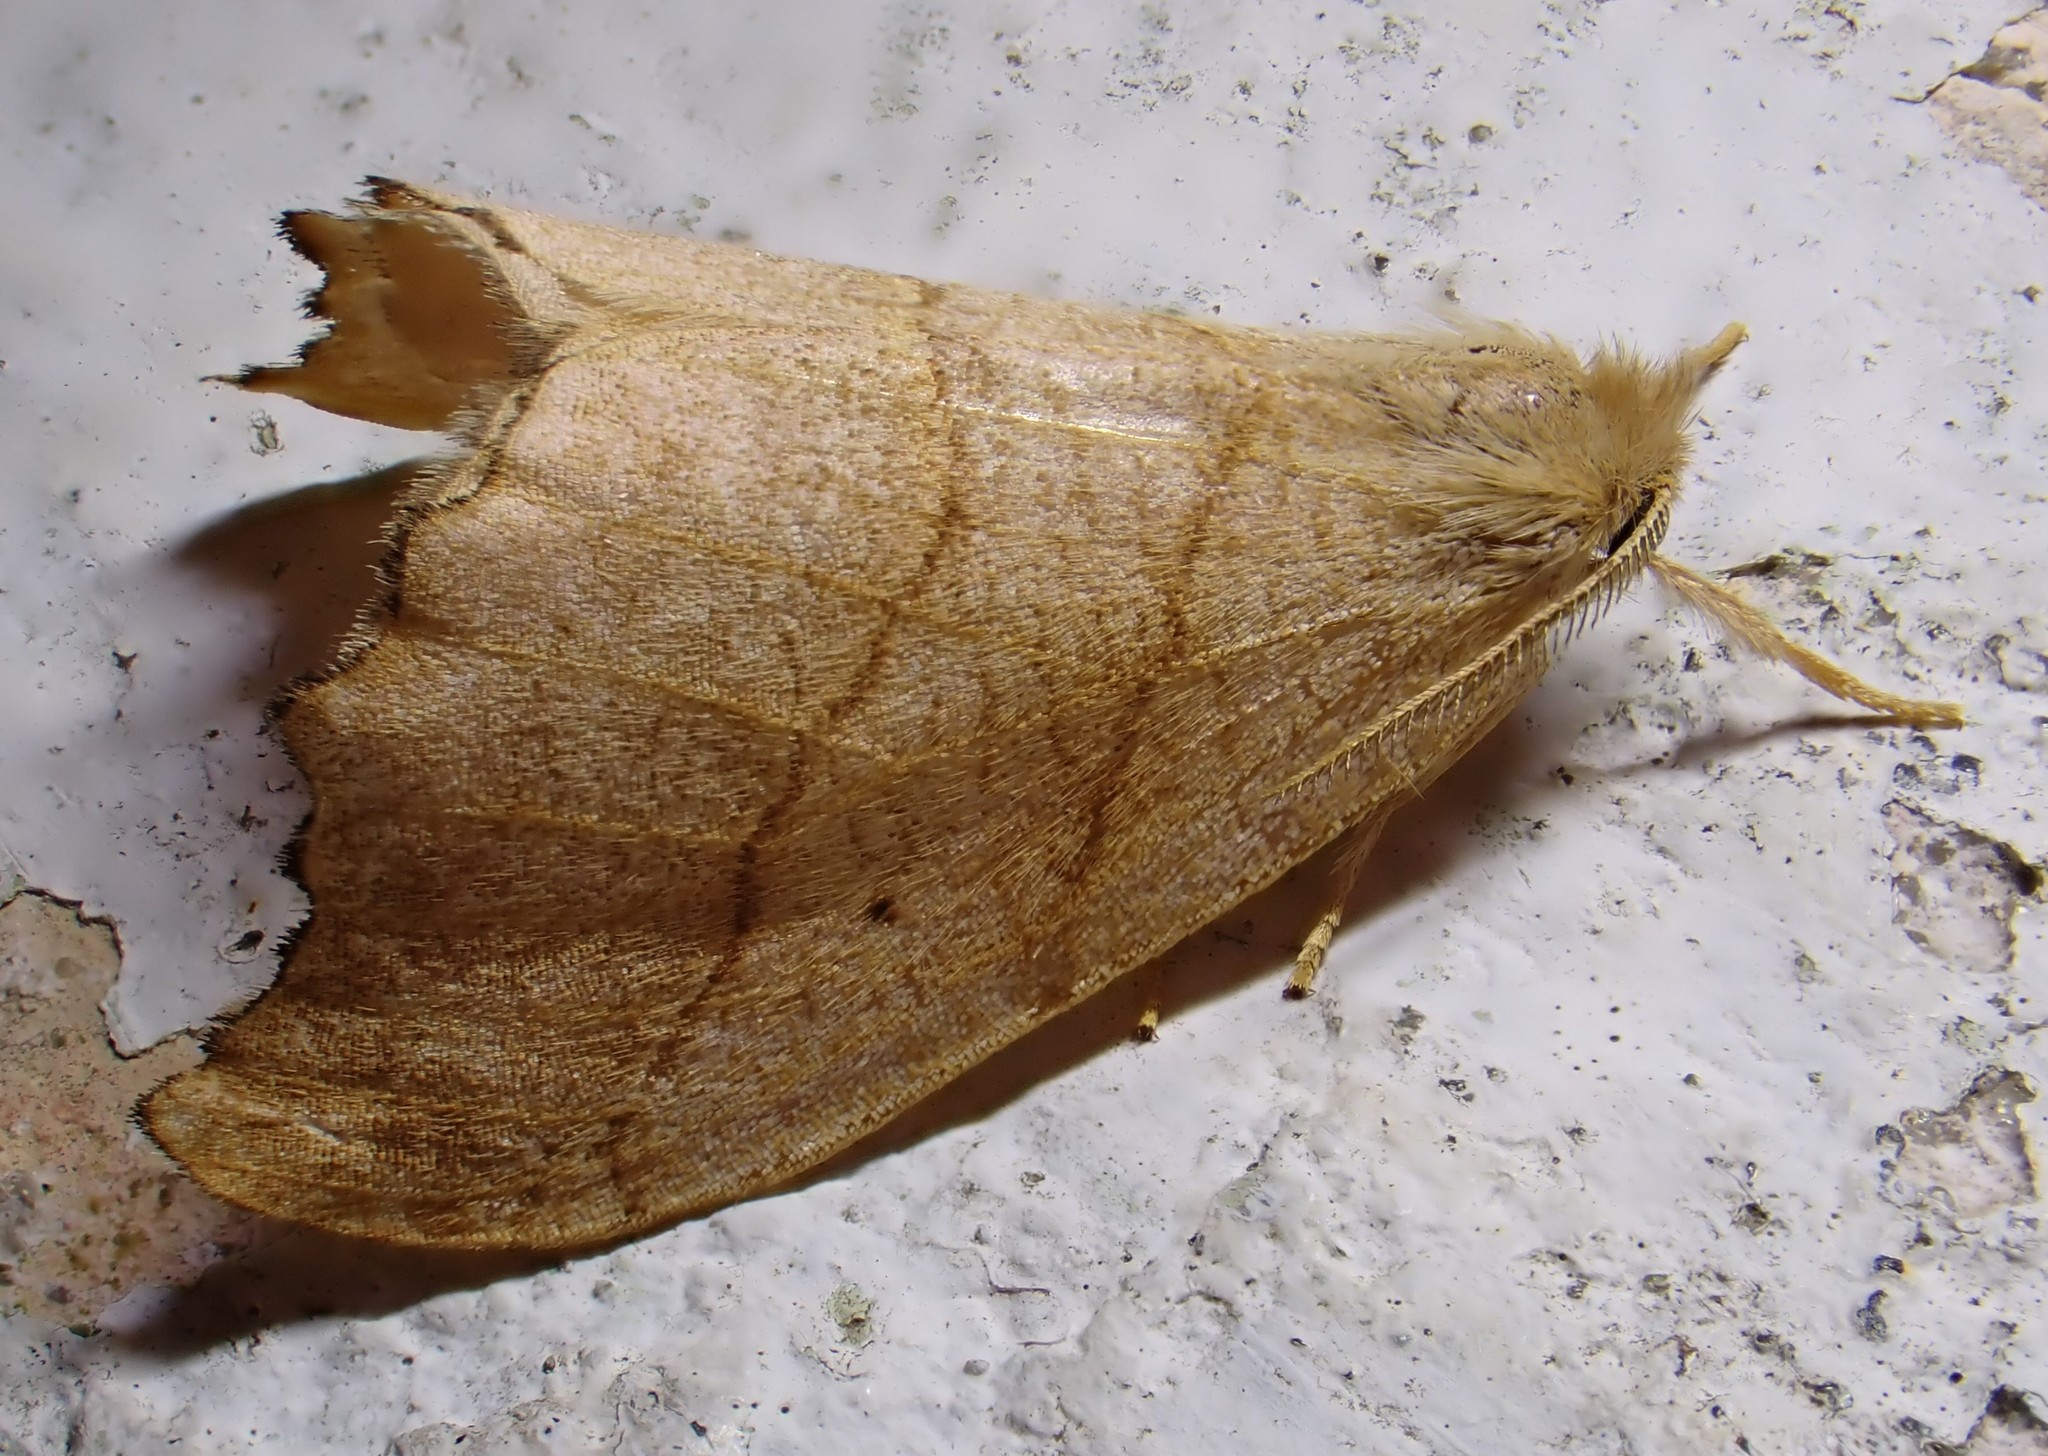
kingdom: Animalia
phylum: Arthropoda
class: Insecta
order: Lepidoptera
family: Drepanidae
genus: Falcaria
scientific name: Falcaria lacertinaria
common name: Scalloped hook-tip
